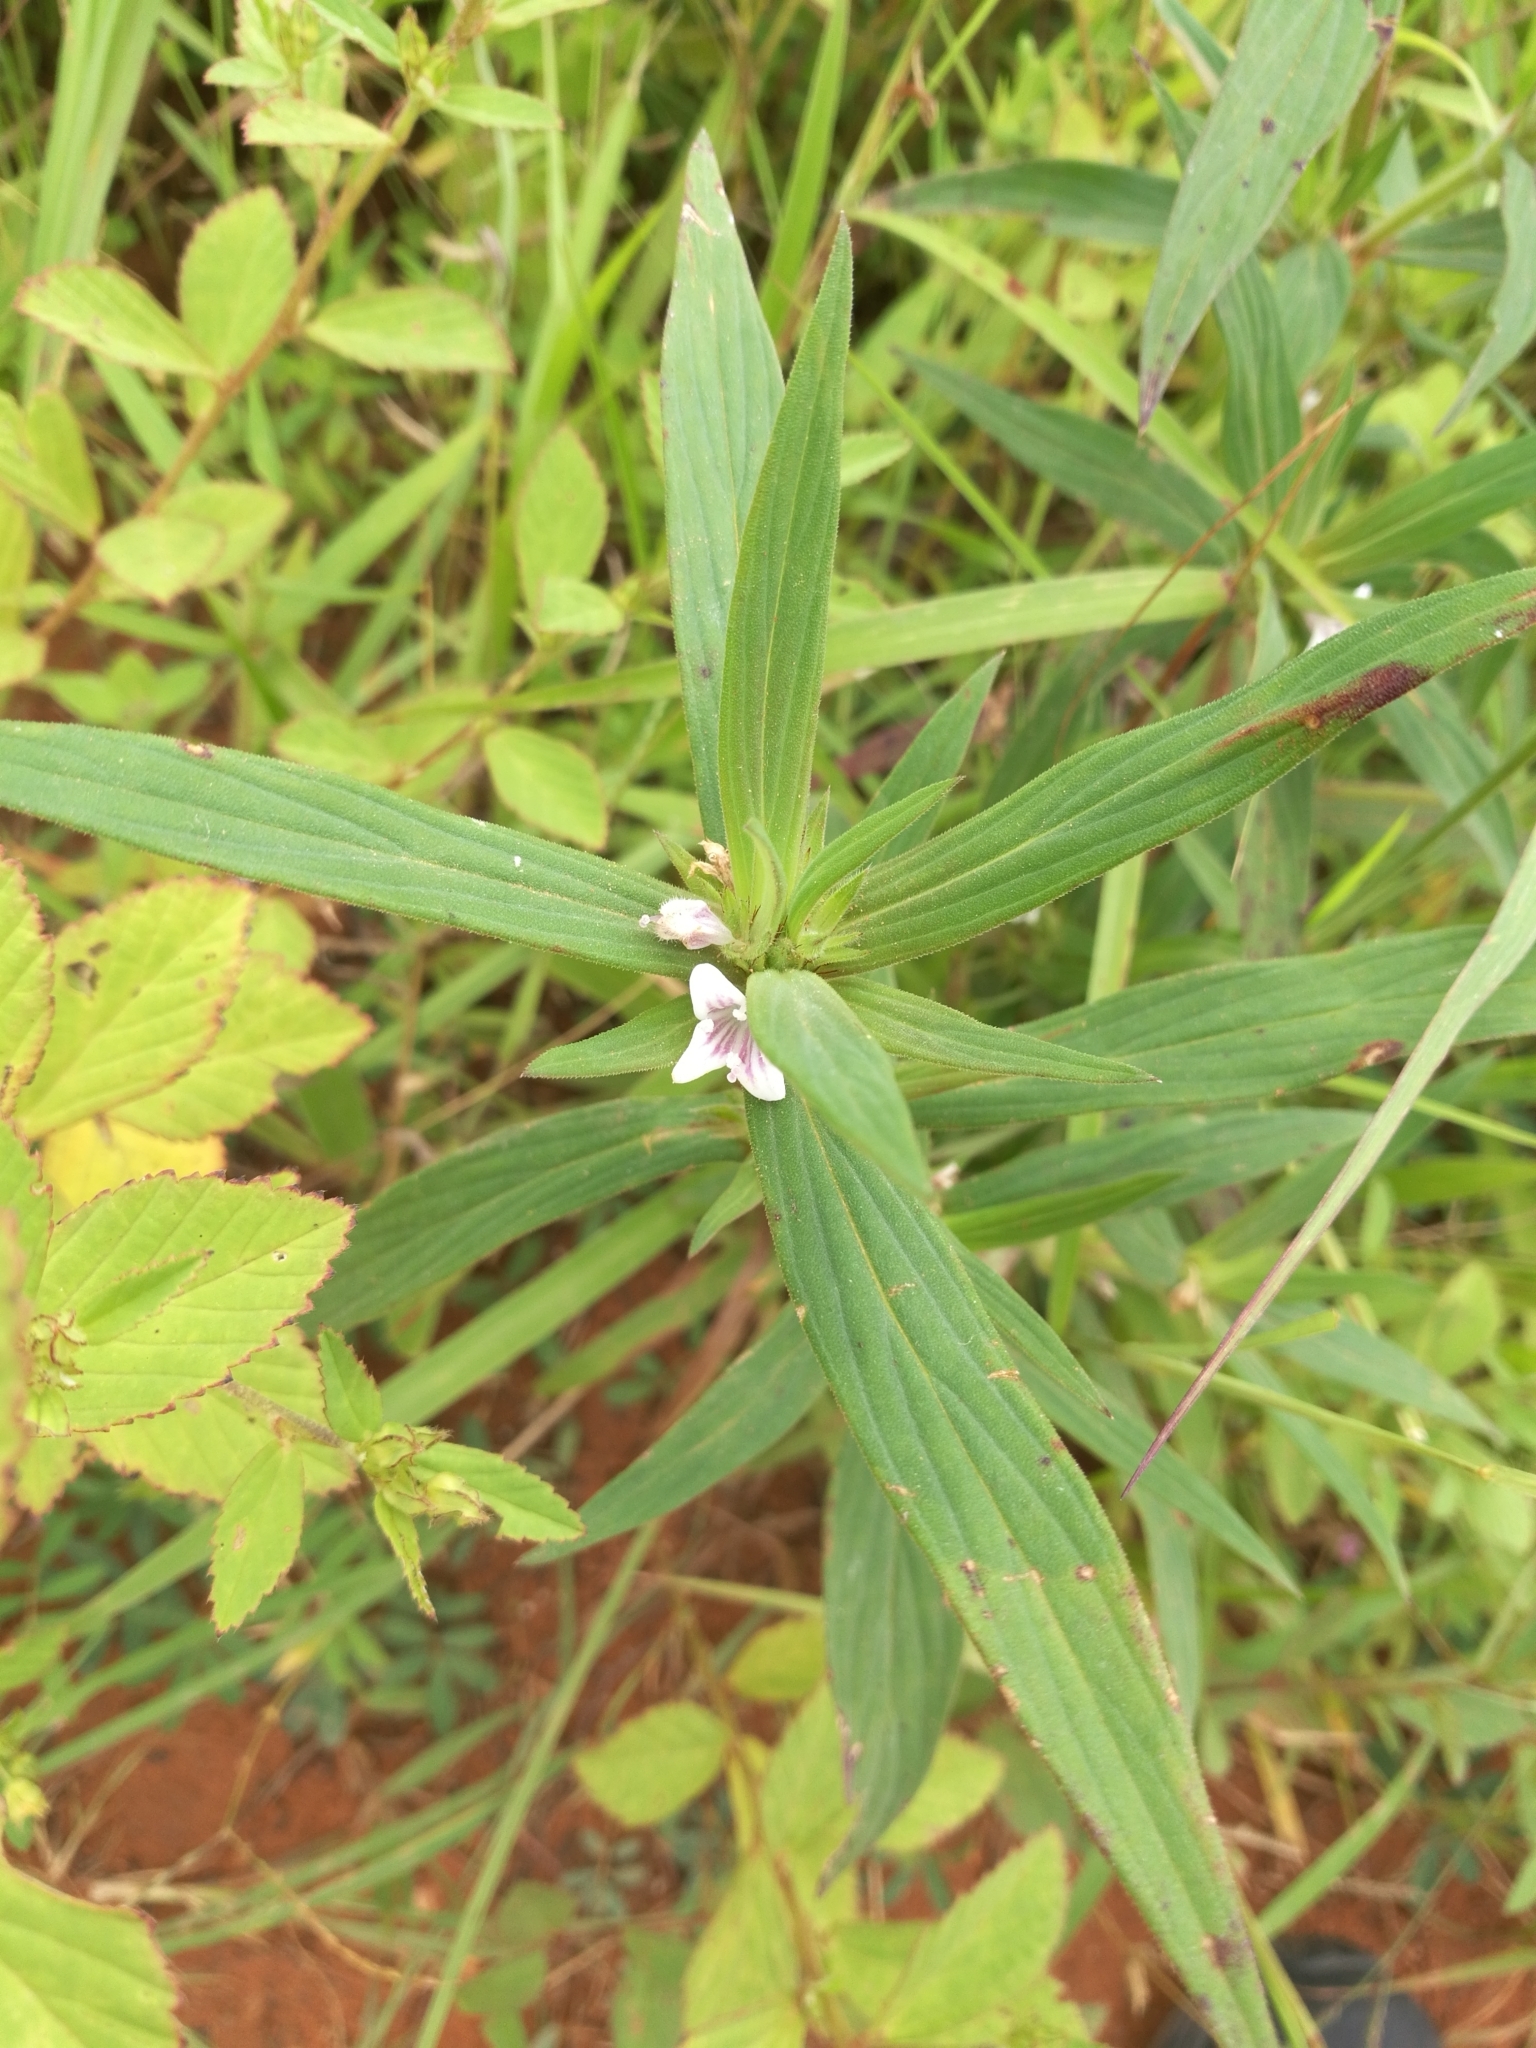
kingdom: Plantae
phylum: Tracheophyta
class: Magnoliopsida
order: Gentianales
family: Rubiaceae
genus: Spermacoce
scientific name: Spermacoce stachydea
